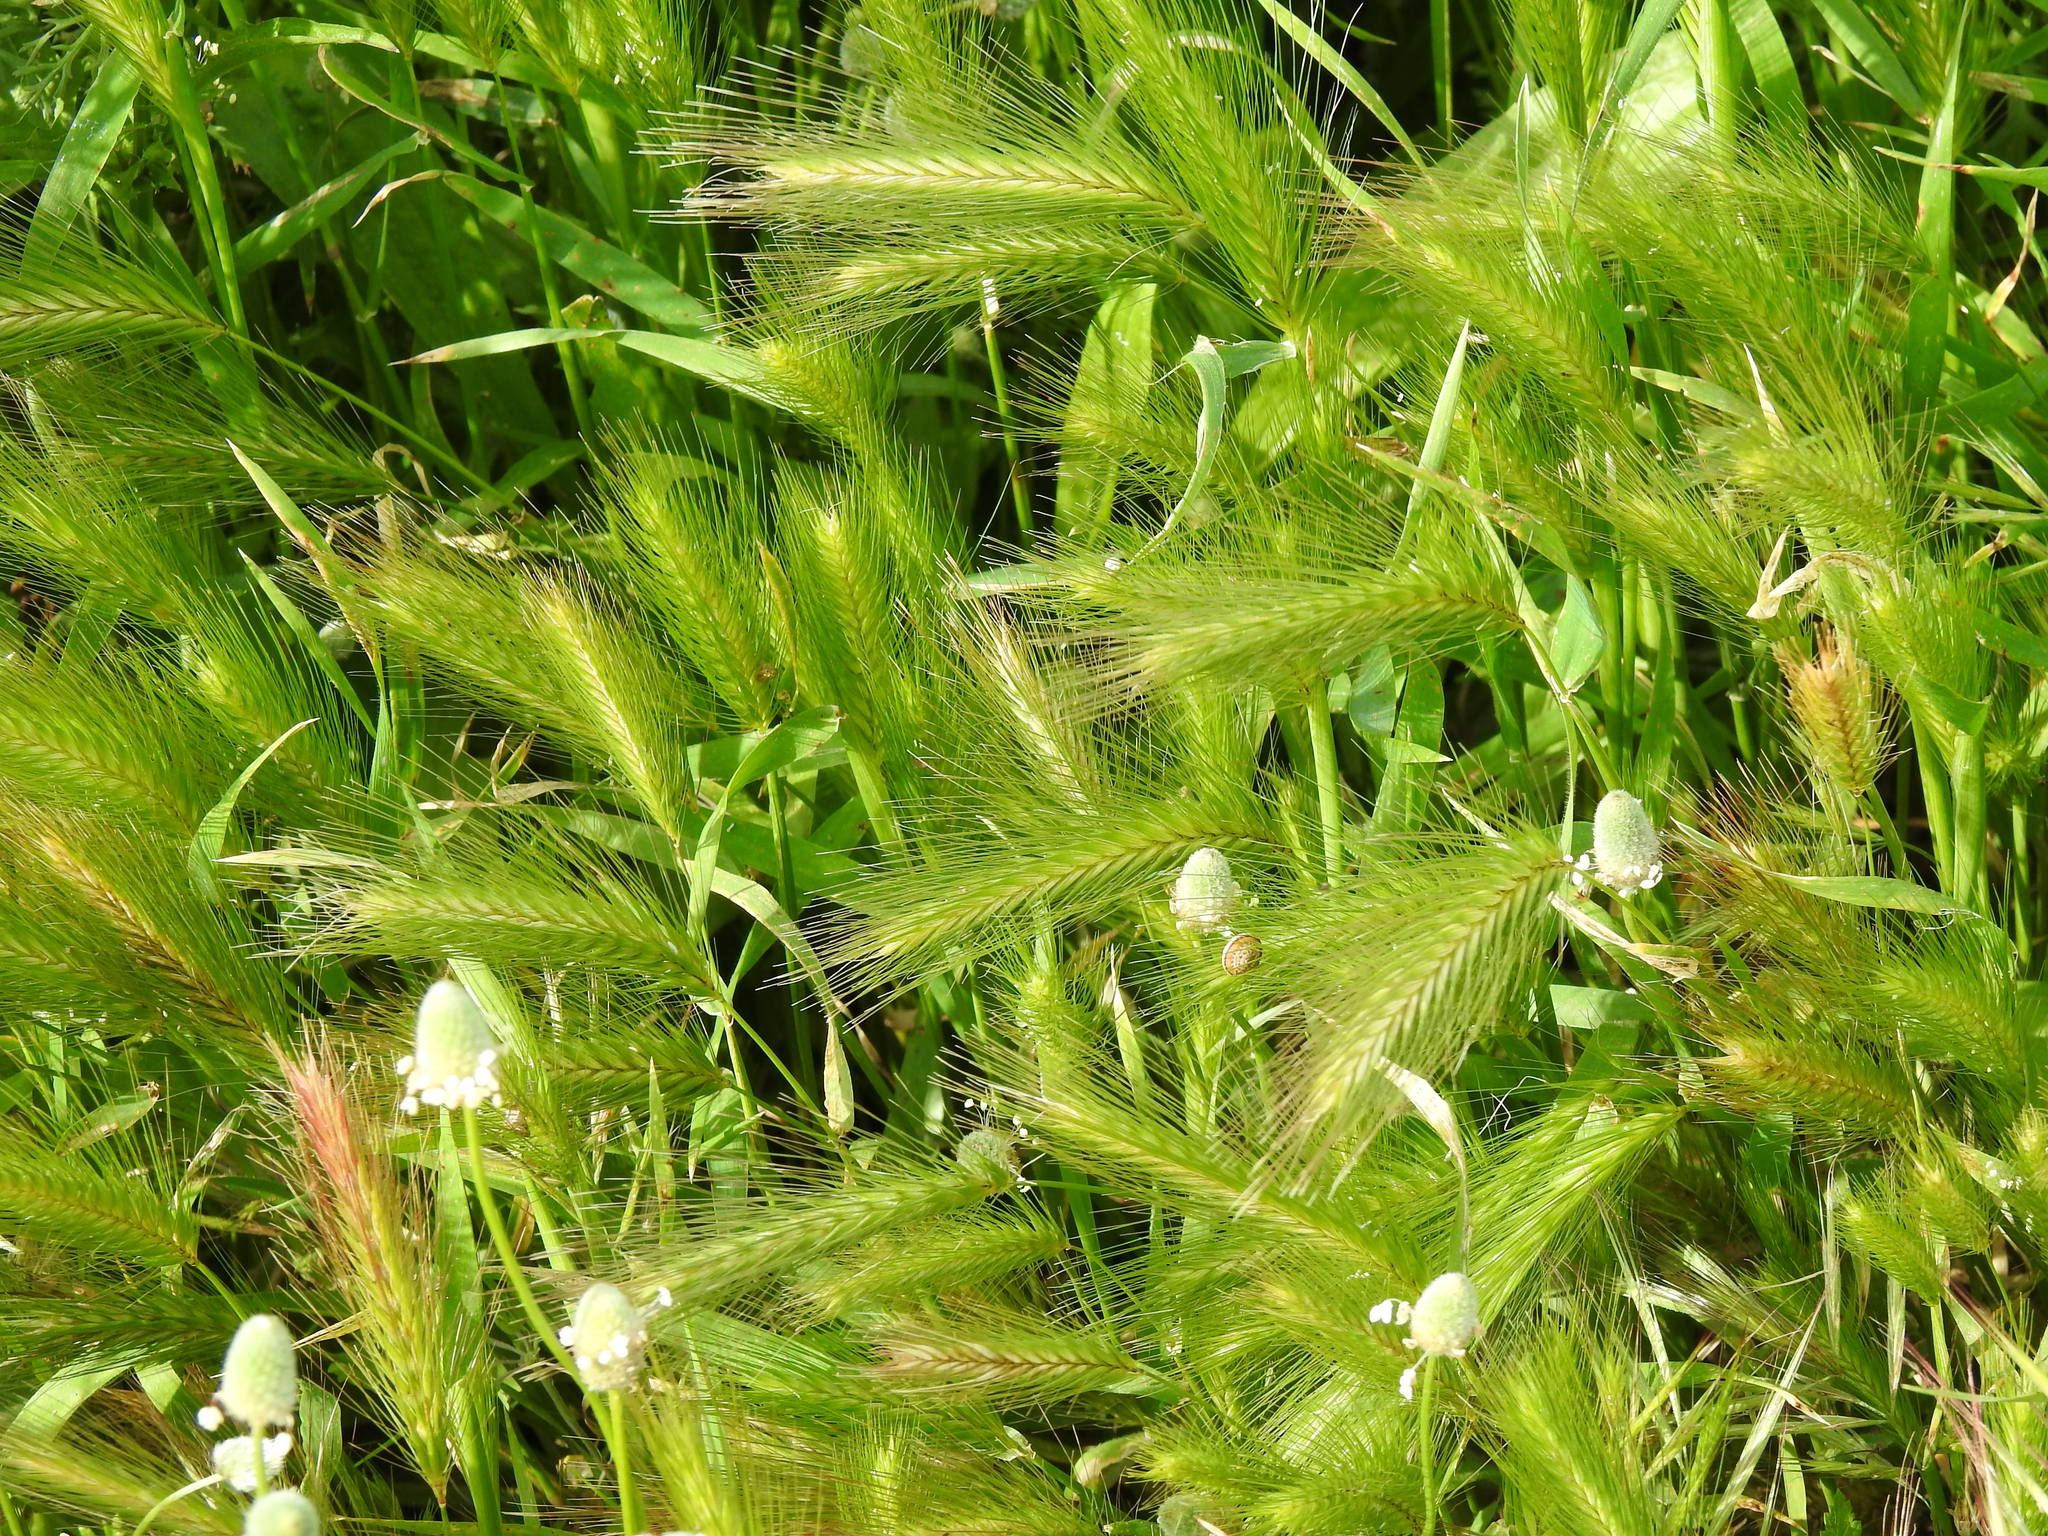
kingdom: Plantae
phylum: Tracheophyta
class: Liliopsida
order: Poales
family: Poaceae
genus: Hordeum
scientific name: Hordeum murinum
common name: Wall barley
